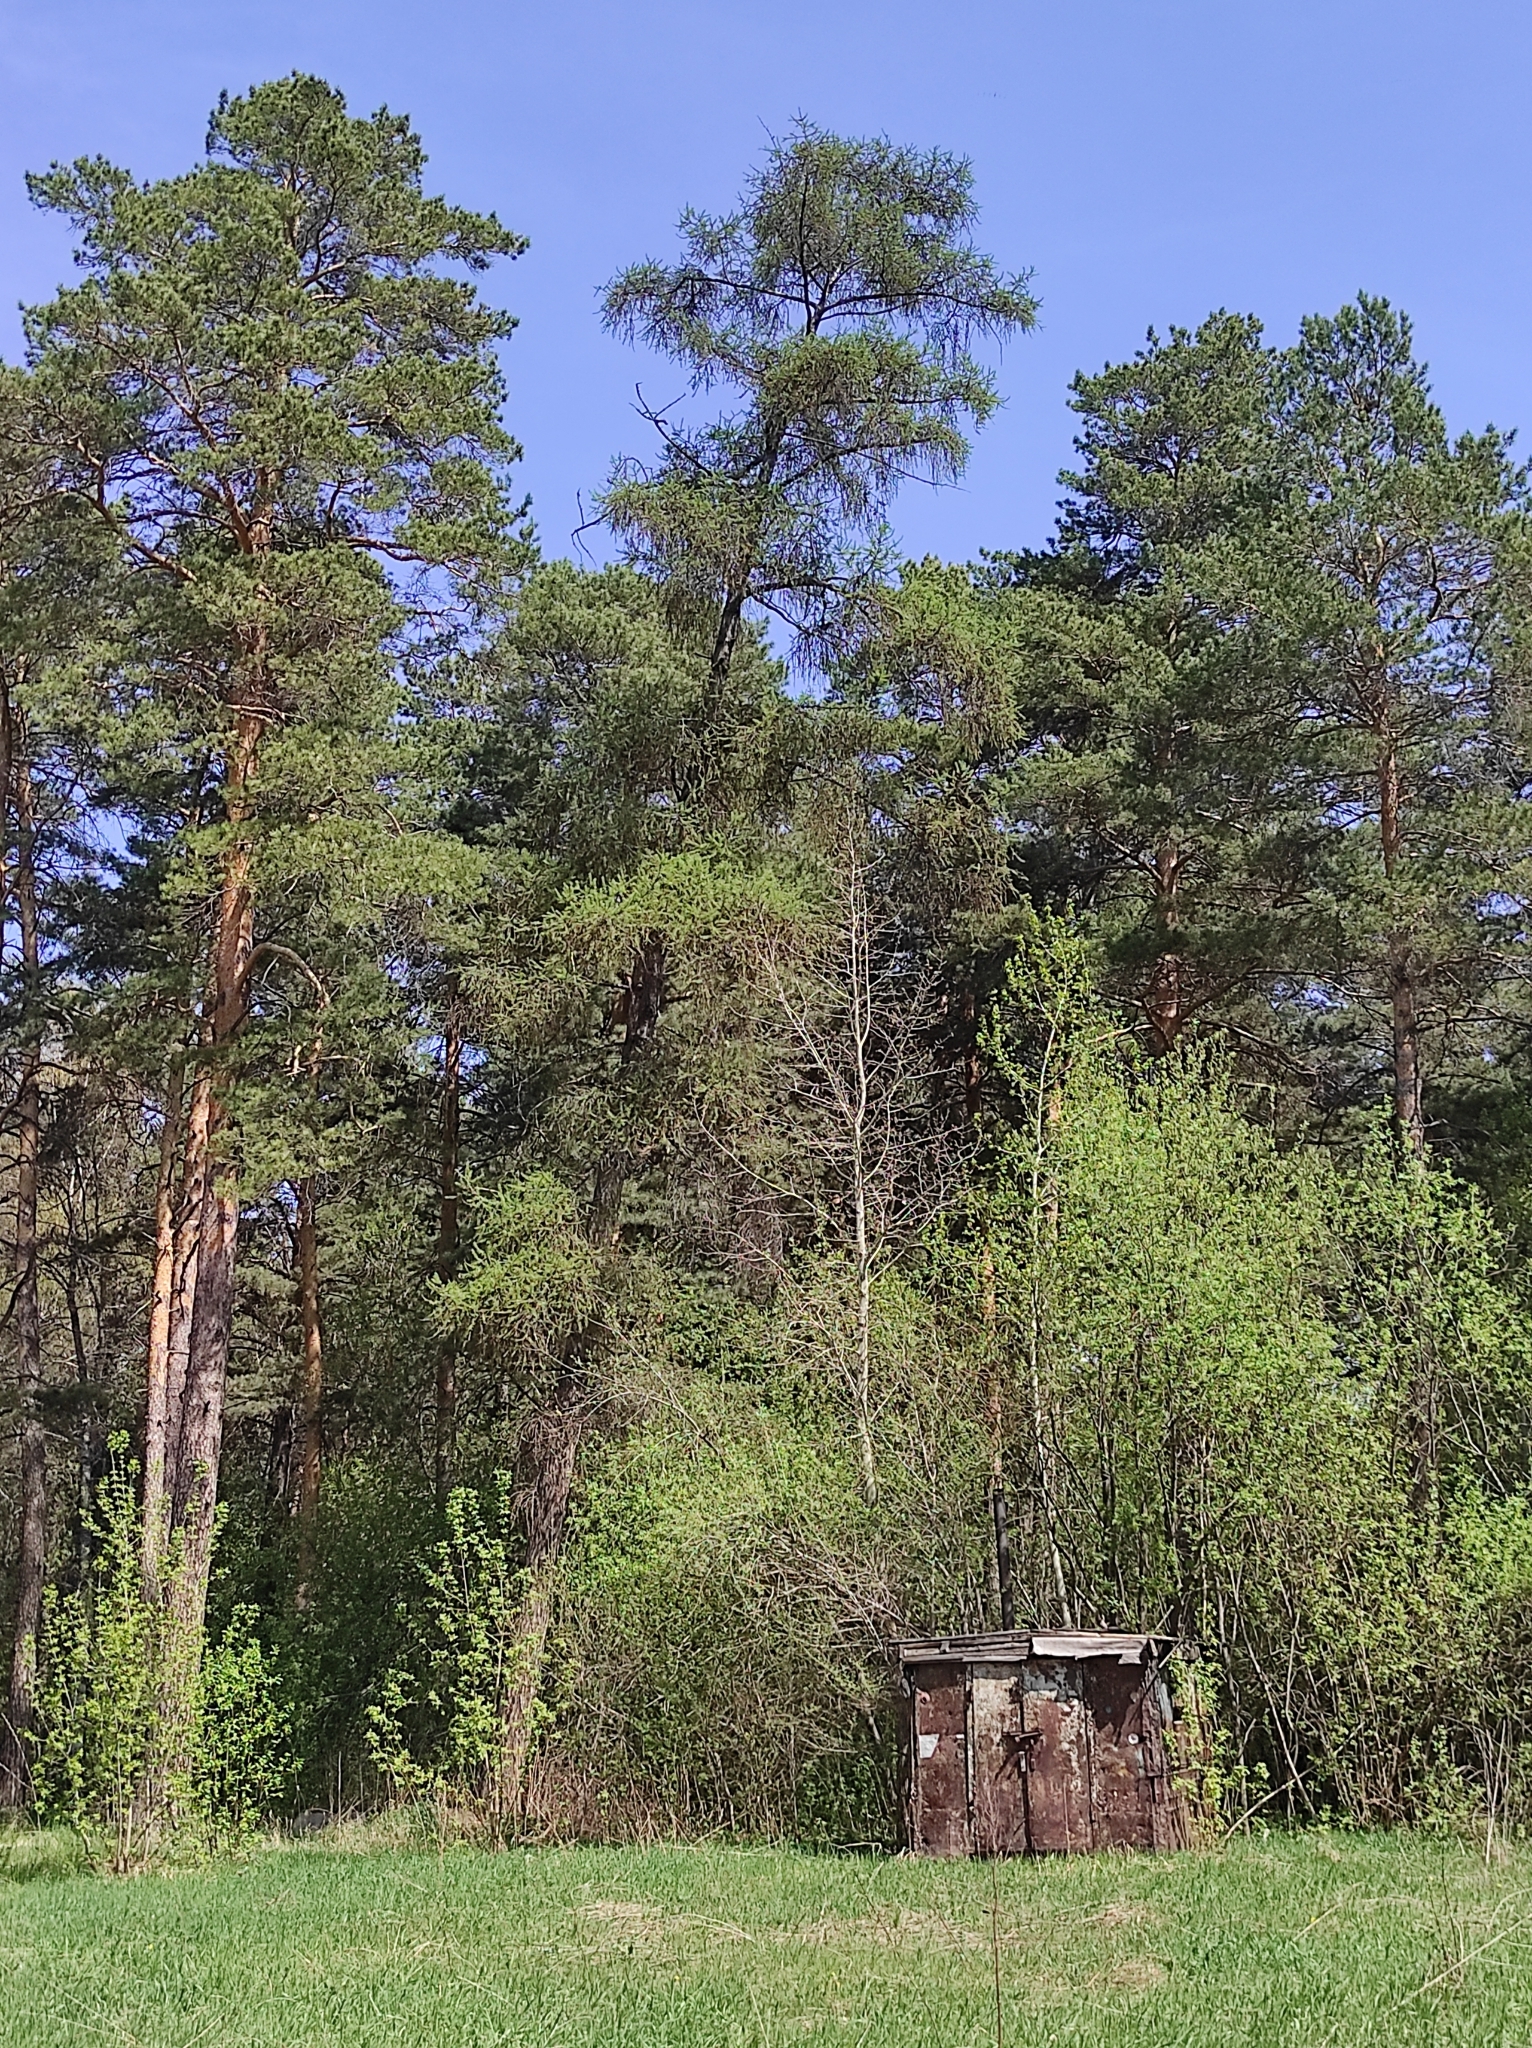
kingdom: Plantae
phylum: Tracheophyta
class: Pinopsida
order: Pinales
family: Pinaceae
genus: Pinus
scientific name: Pinus sylvestris
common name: Scots pine
